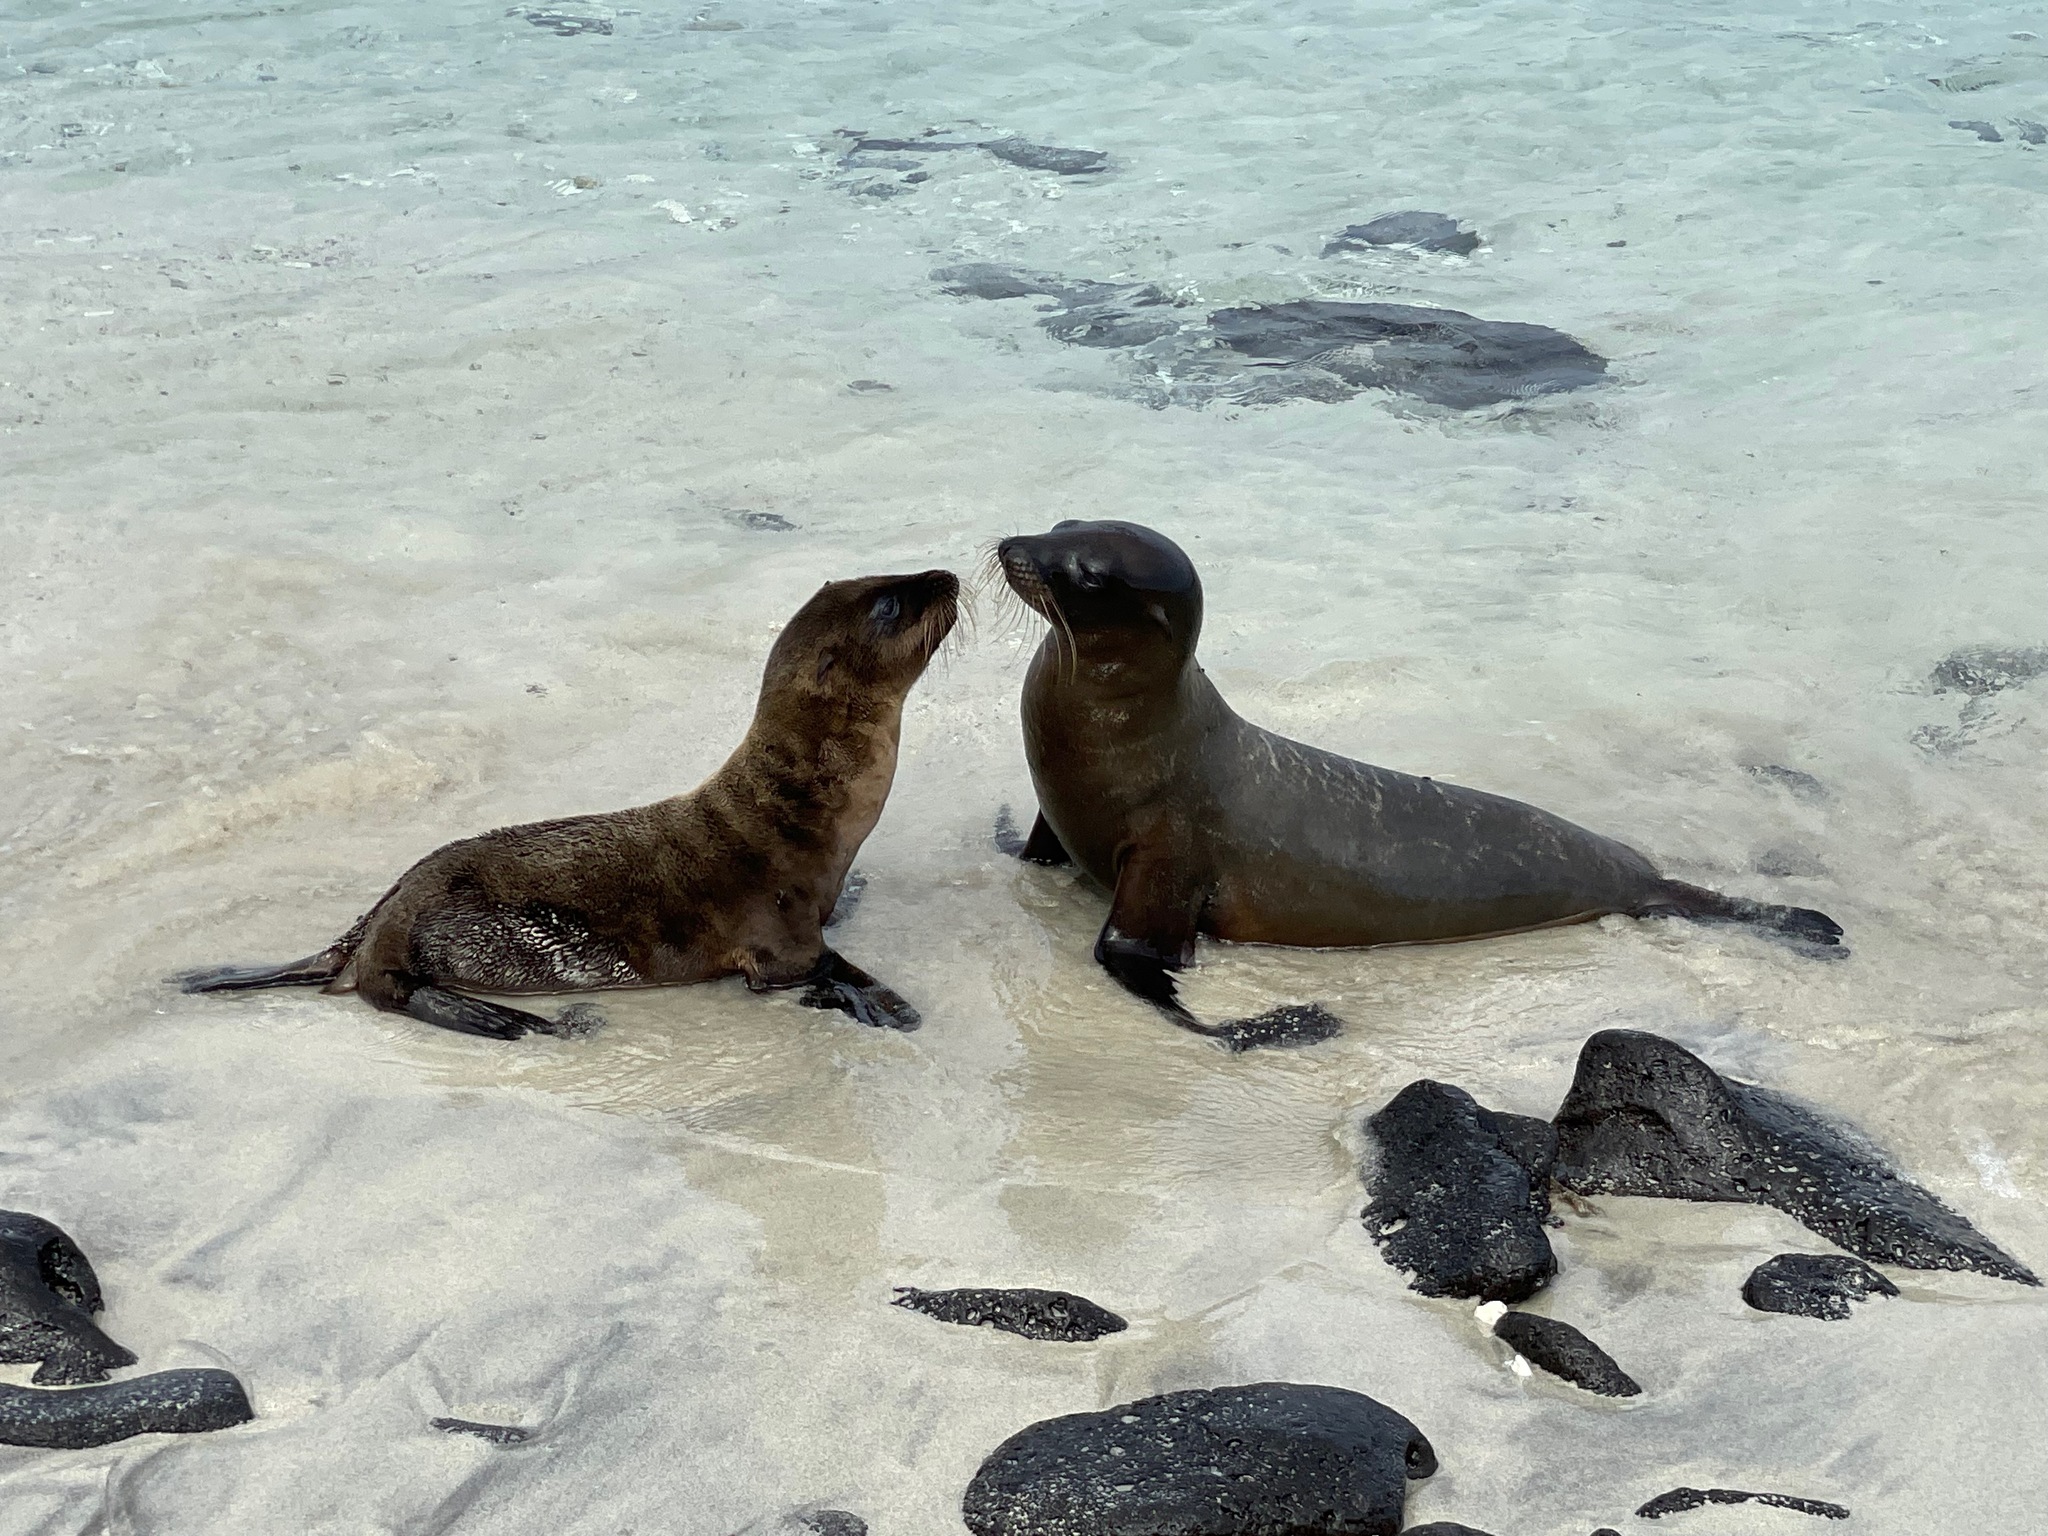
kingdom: Animalia
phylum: Chordata
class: Mammalia
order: Carnivora
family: Otariidae
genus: Zalophus
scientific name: Zalophus wollebaeki
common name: Galapagos sea lion
